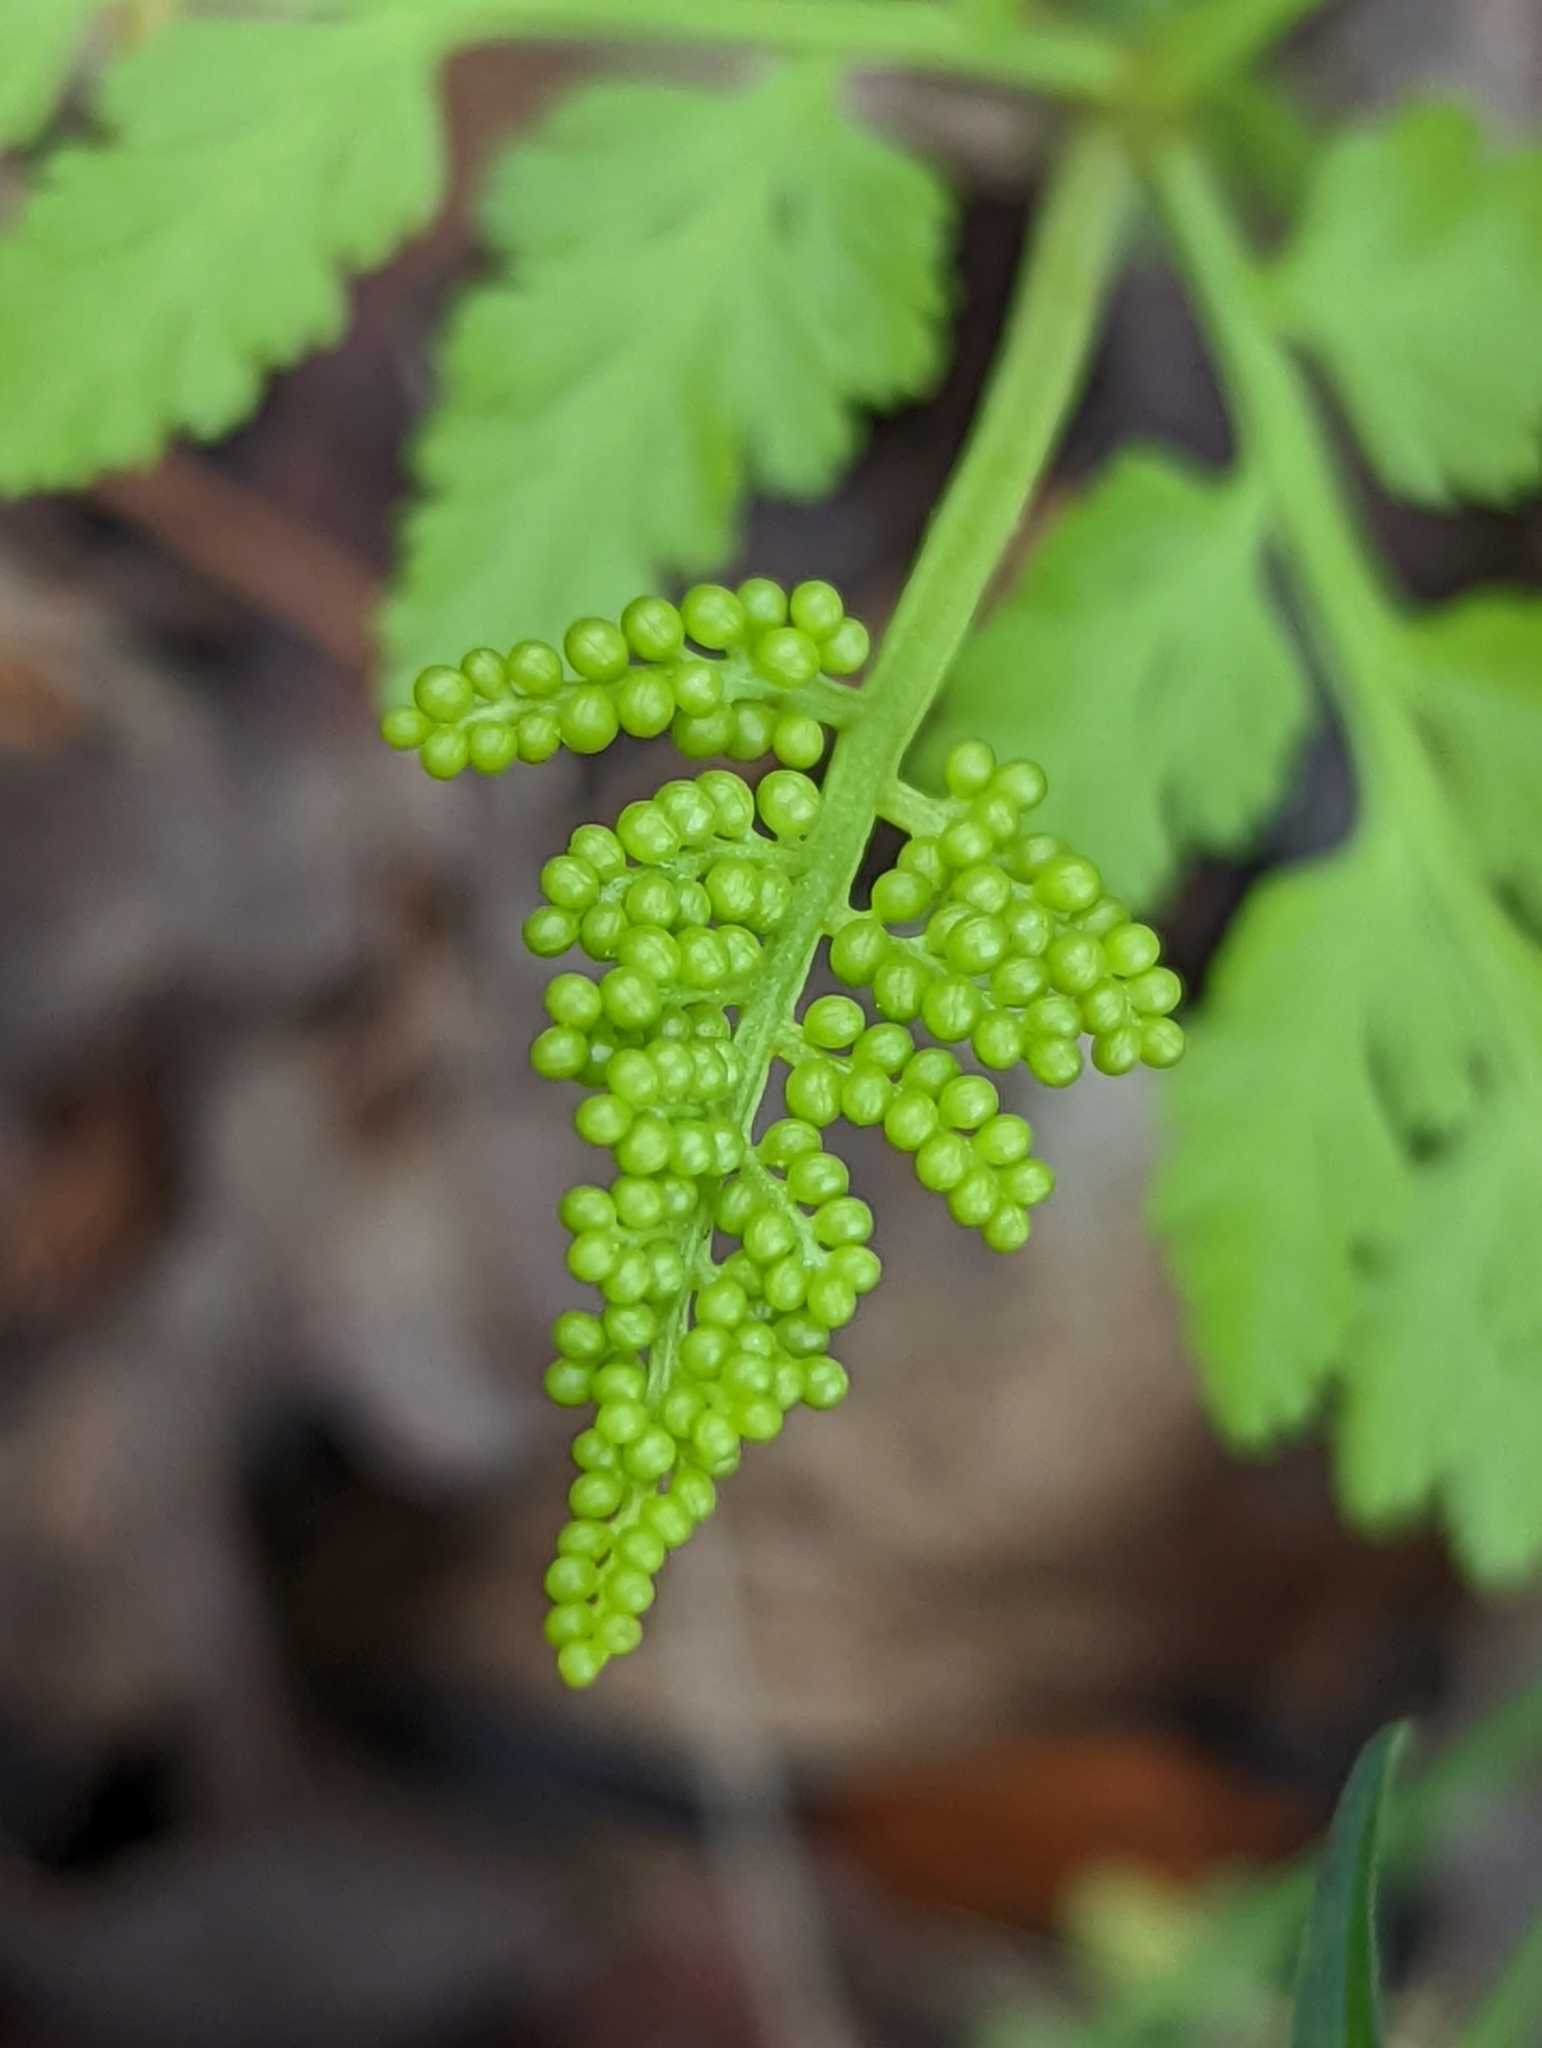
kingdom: Plantae
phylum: Tracheophyta
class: Polypodiopsida
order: Ophioglossales
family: Ophioglossaceae
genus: Botrypus
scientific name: Botrypus virginianus
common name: Common grapefern
